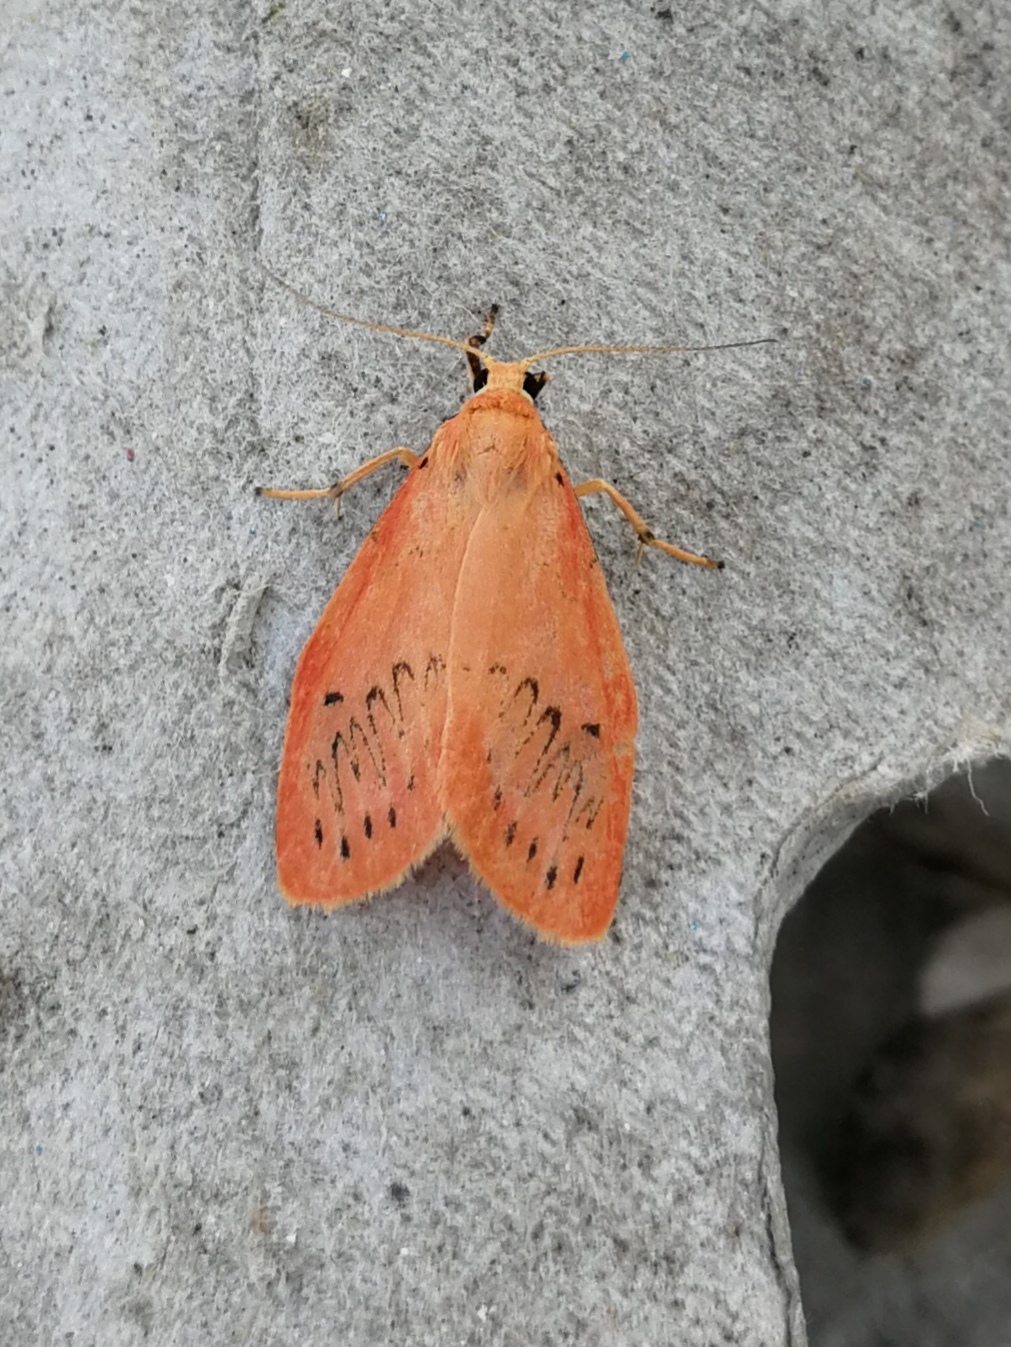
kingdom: Animalia
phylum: Arthropoda
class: Insecta
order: Lepidoptera
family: Erebidae
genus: Miltochrista
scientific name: Miltochrista miniata
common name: Rosy footman
